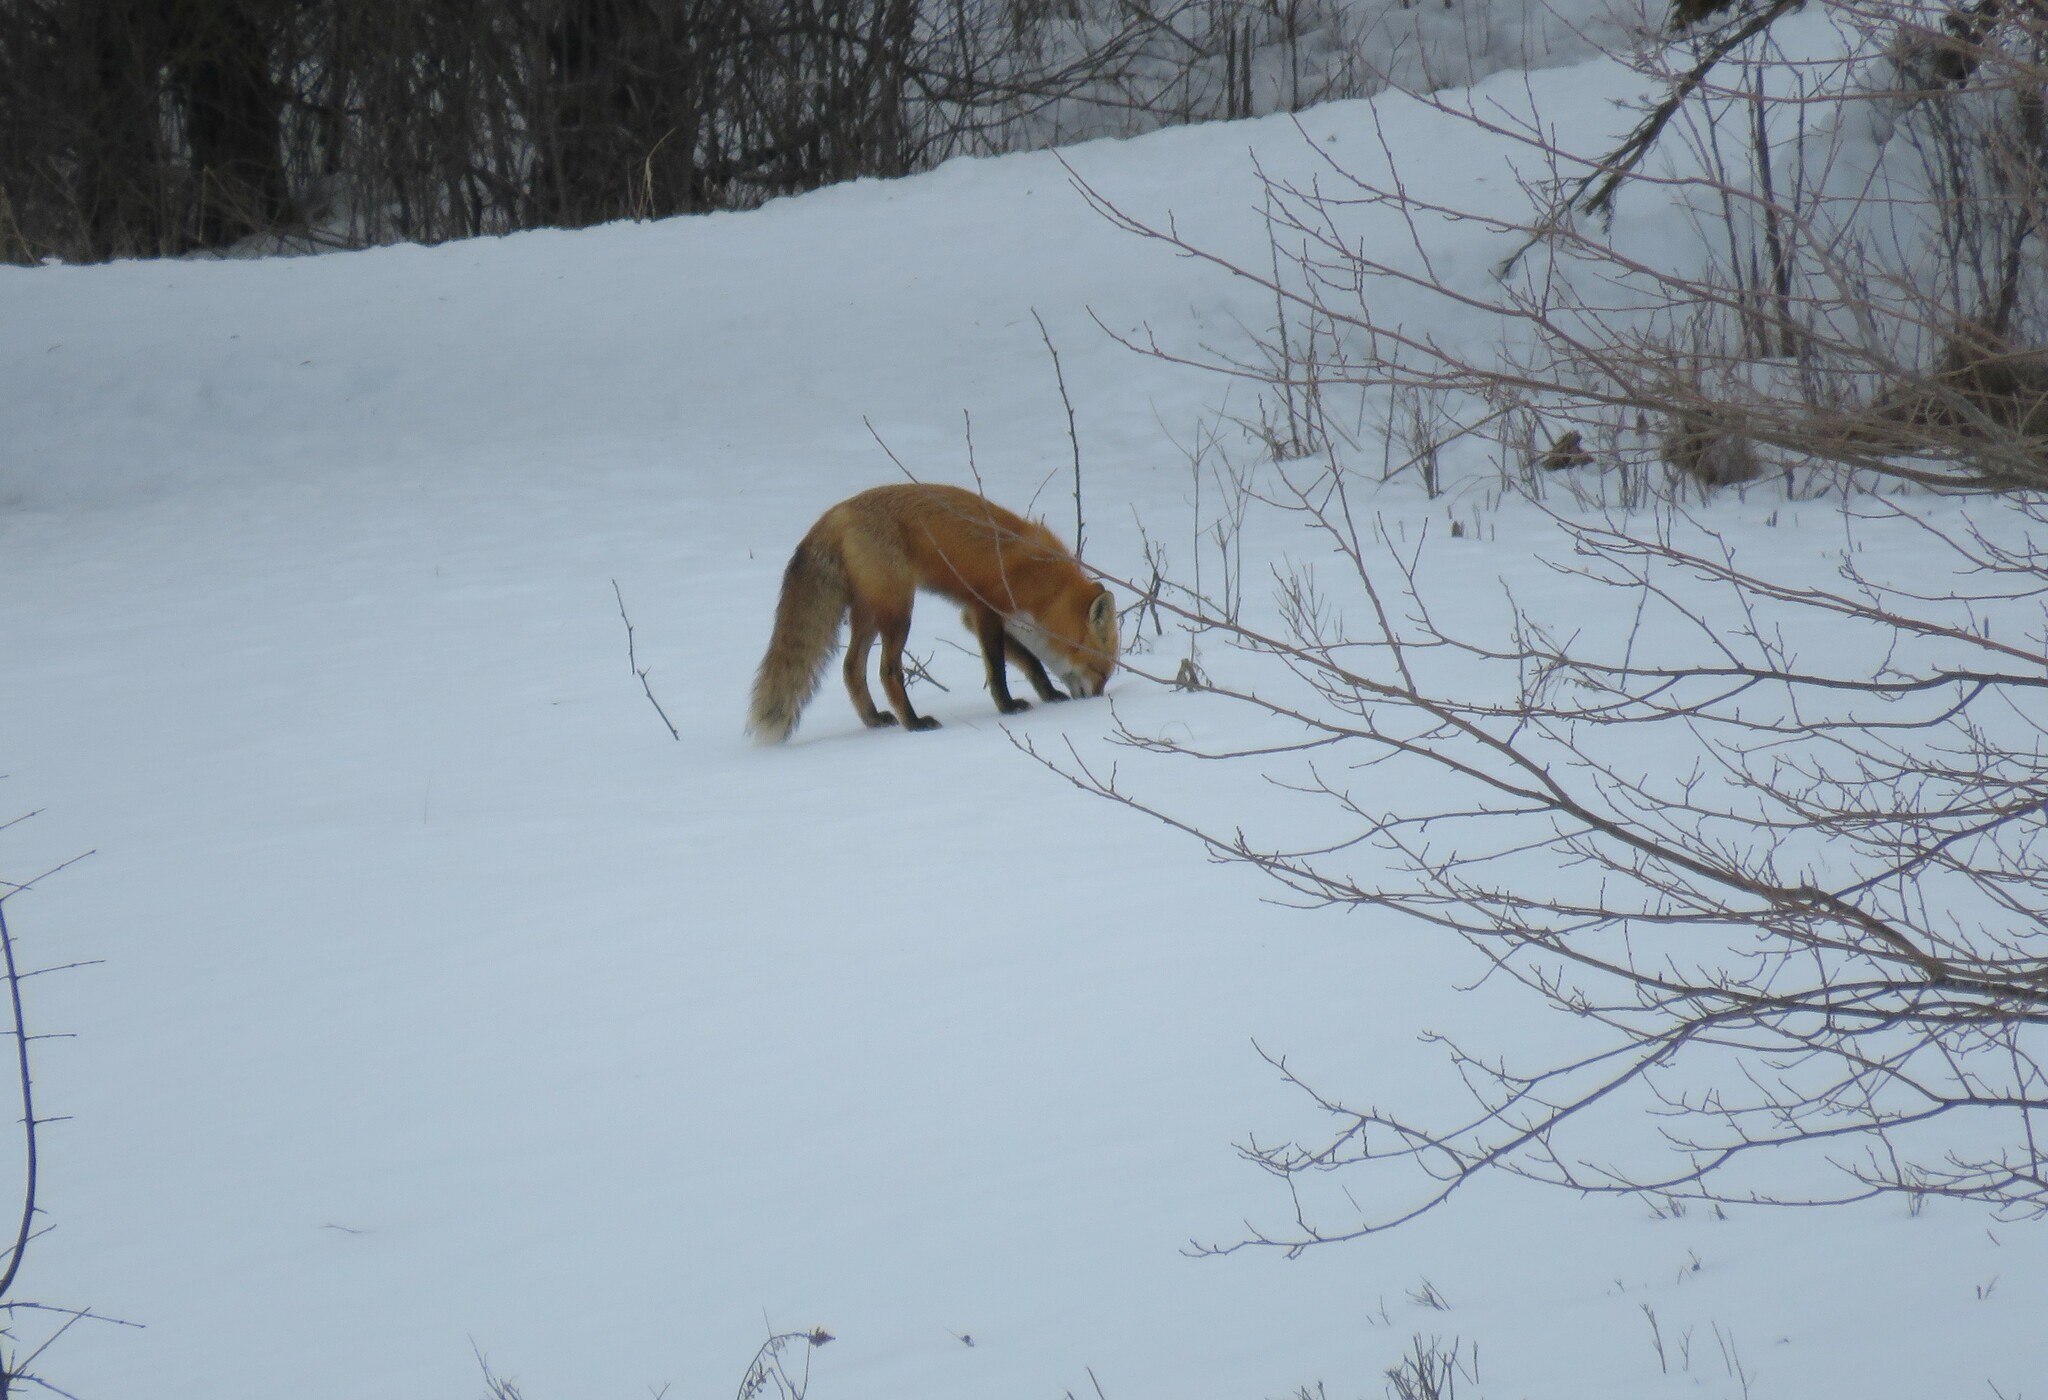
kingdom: Animalia
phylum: Chordata
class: Mammalia
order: Carnivora
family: Canidae
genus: Vulpes
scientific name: Vulpes vulpes
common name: Red fox
